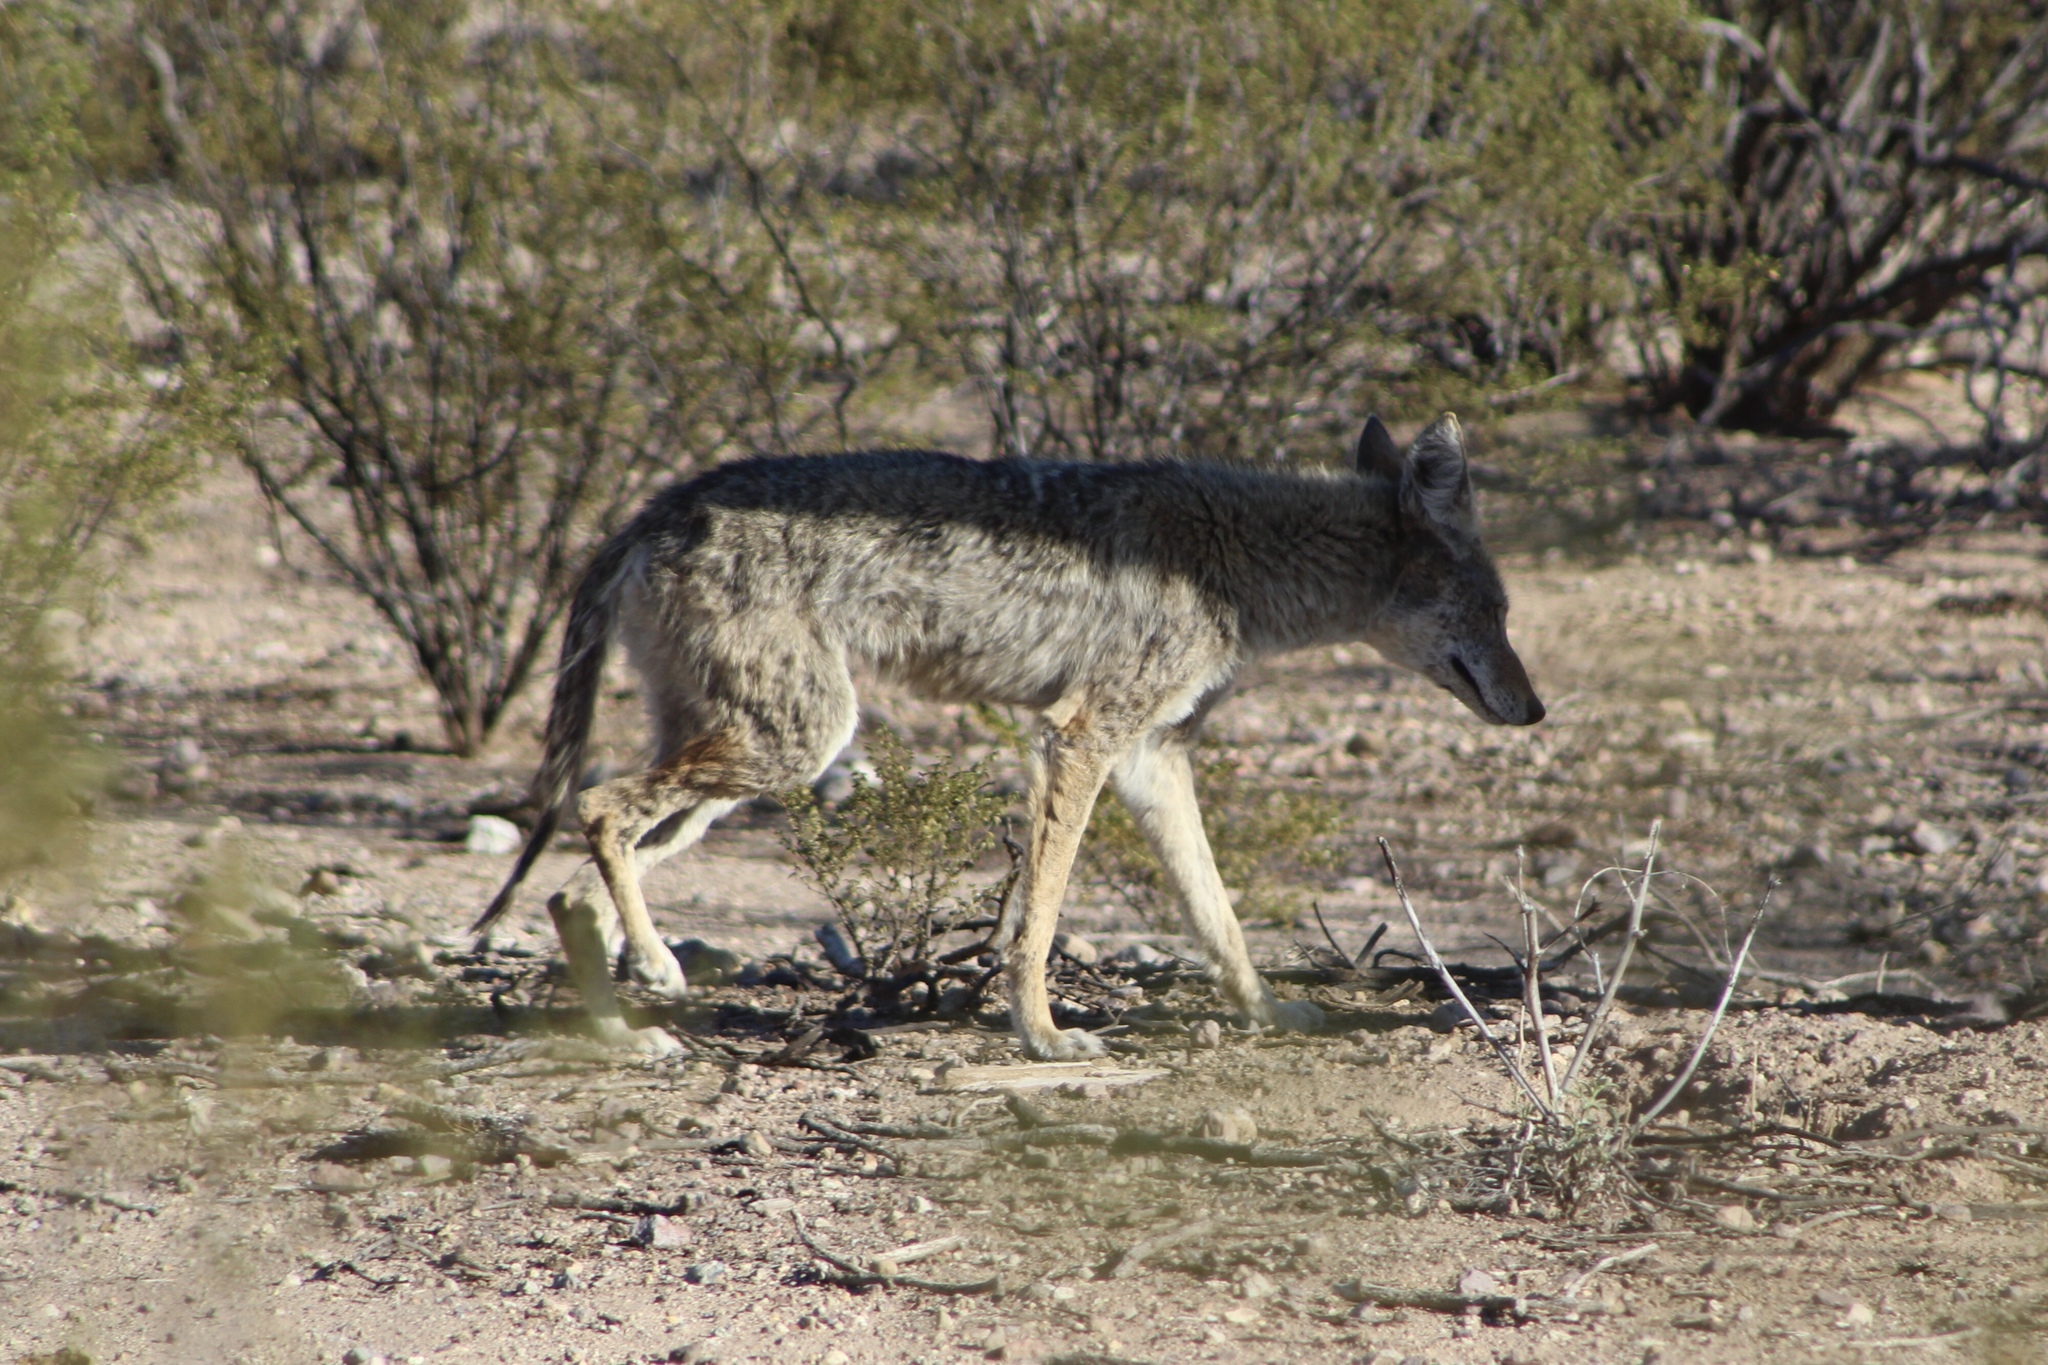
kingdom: Animalia
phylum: Chordata
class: Mammalia
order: Carnivora
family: Canidae
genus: Canis
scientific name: Canis latrans
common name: Coyote
